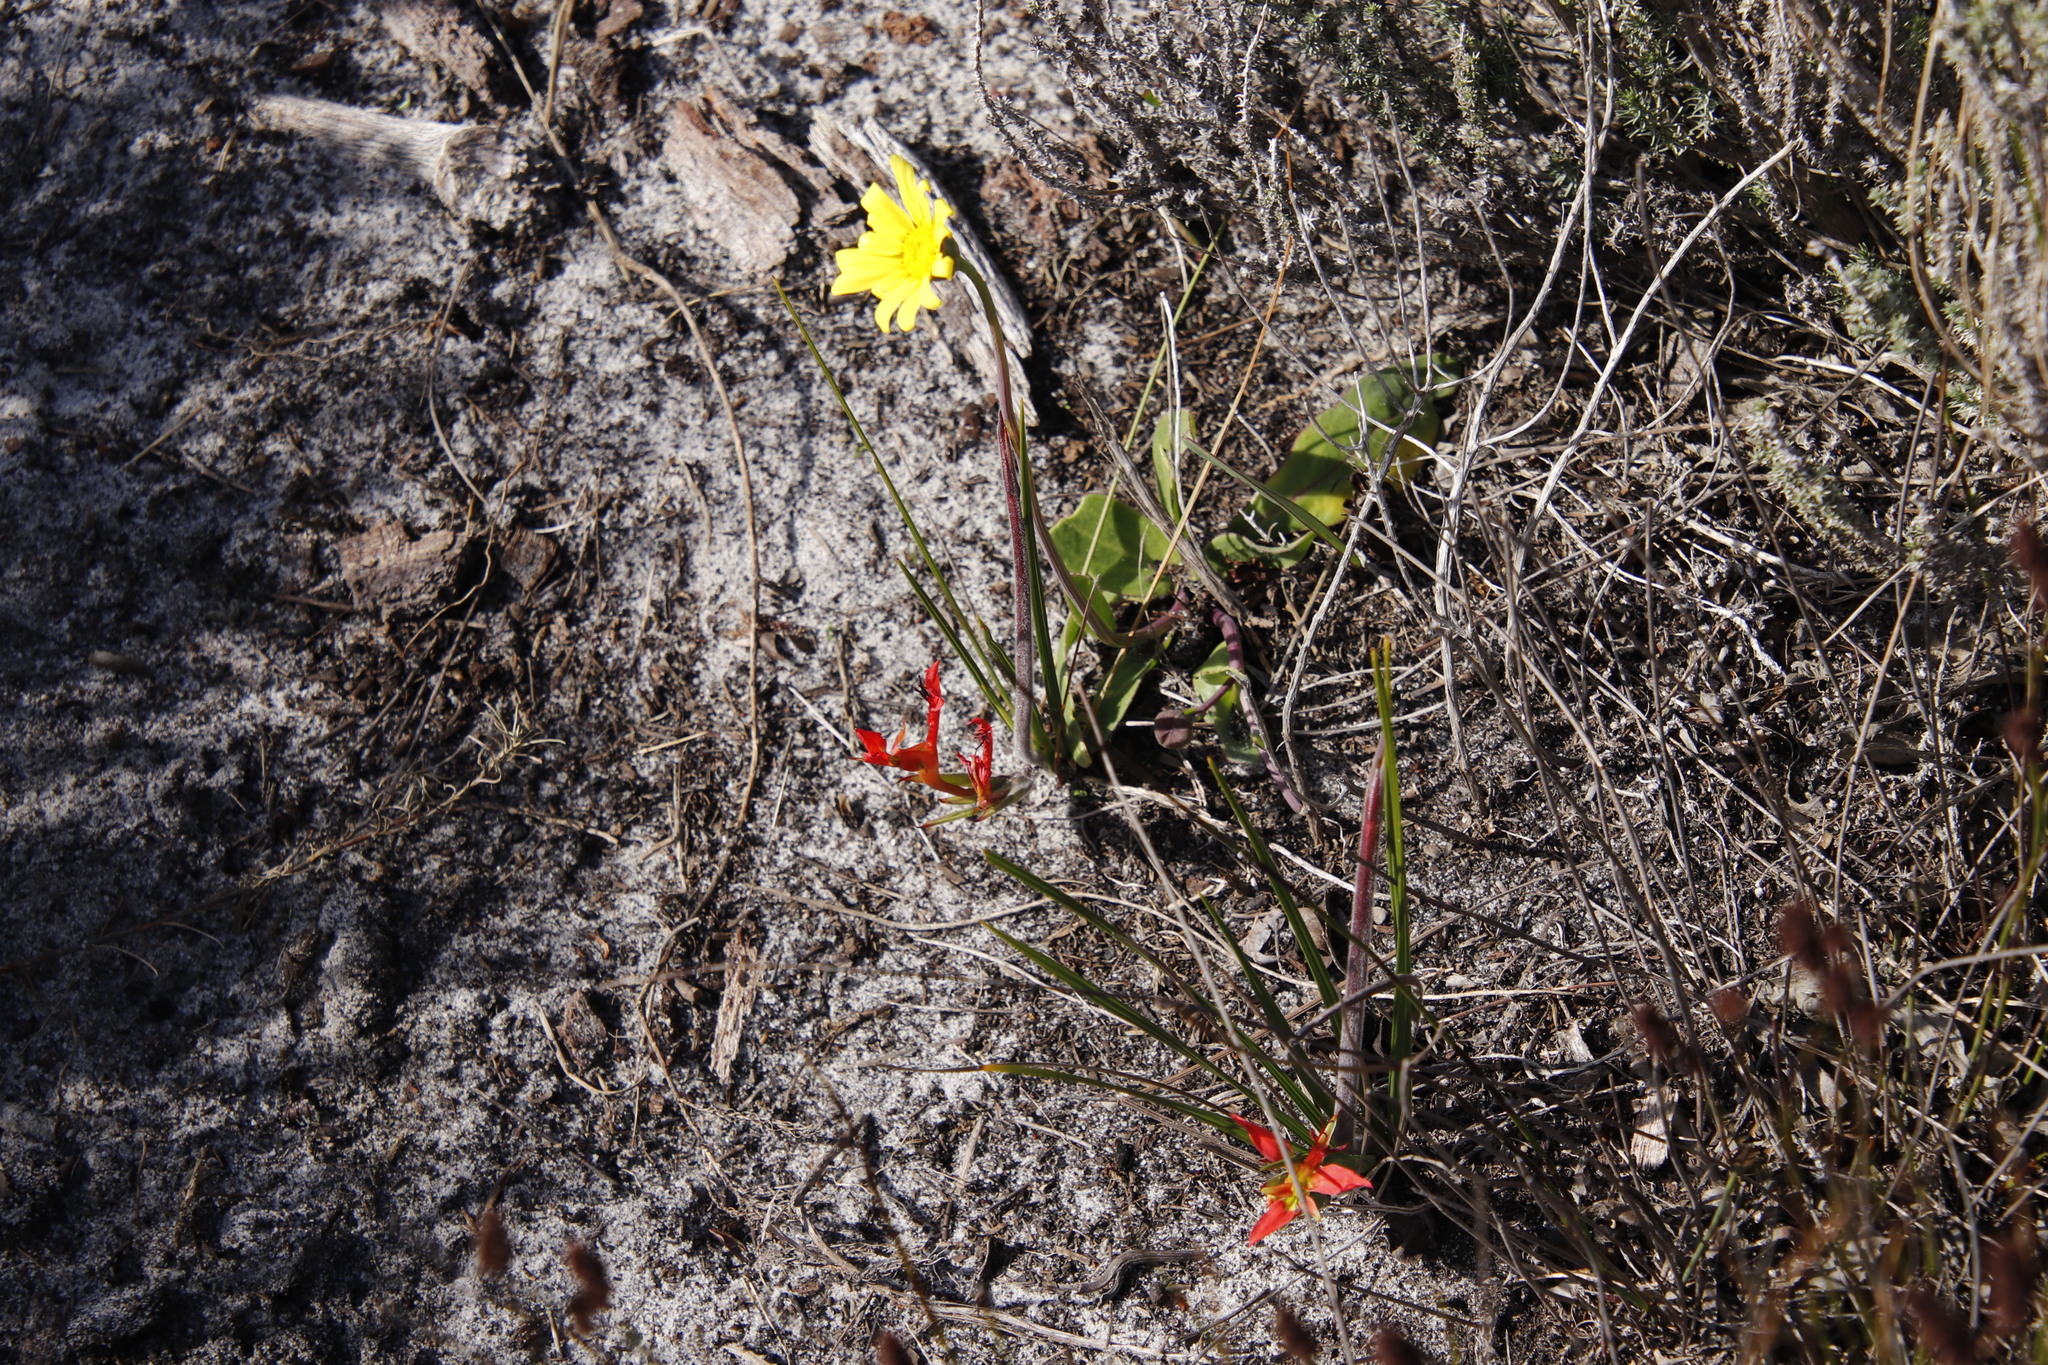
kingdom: Plantae
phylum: Tracheophyta
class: Liliopsida
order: Asparagales
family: Iridaceae
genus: Babiana
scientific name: Babiana ringens
